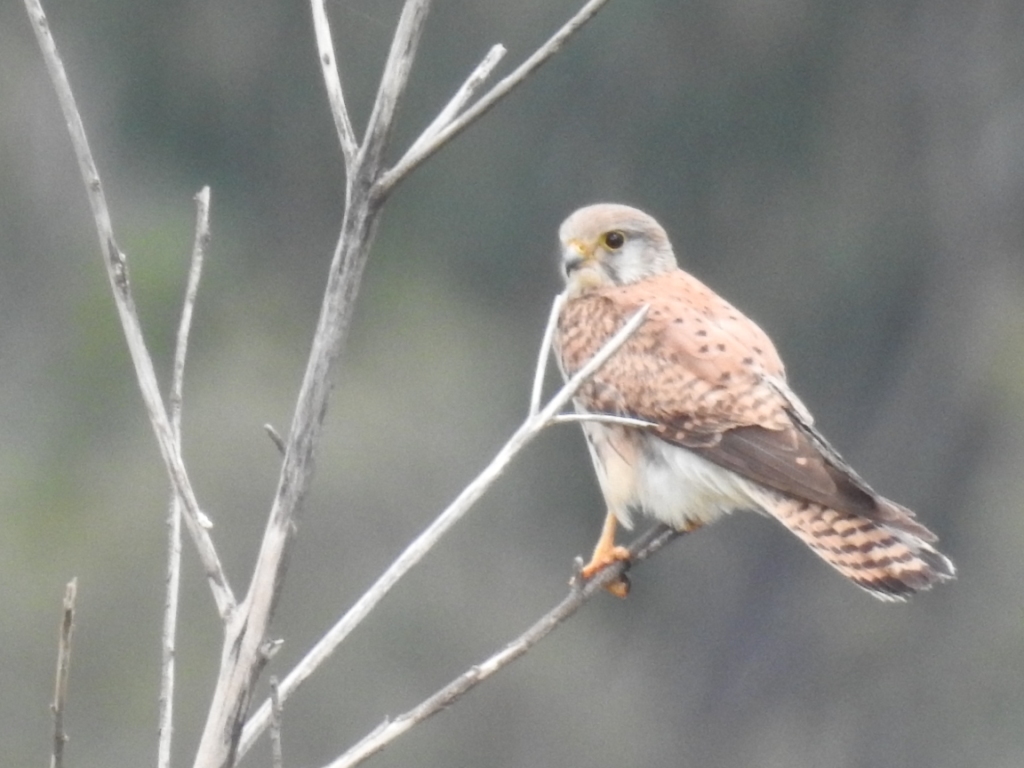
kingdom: Animalia
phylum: Chordata
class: Aves
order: Falconiformes
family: Falconidae
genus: Falco
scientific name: Falco tinnunculus
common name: Common kestrel
